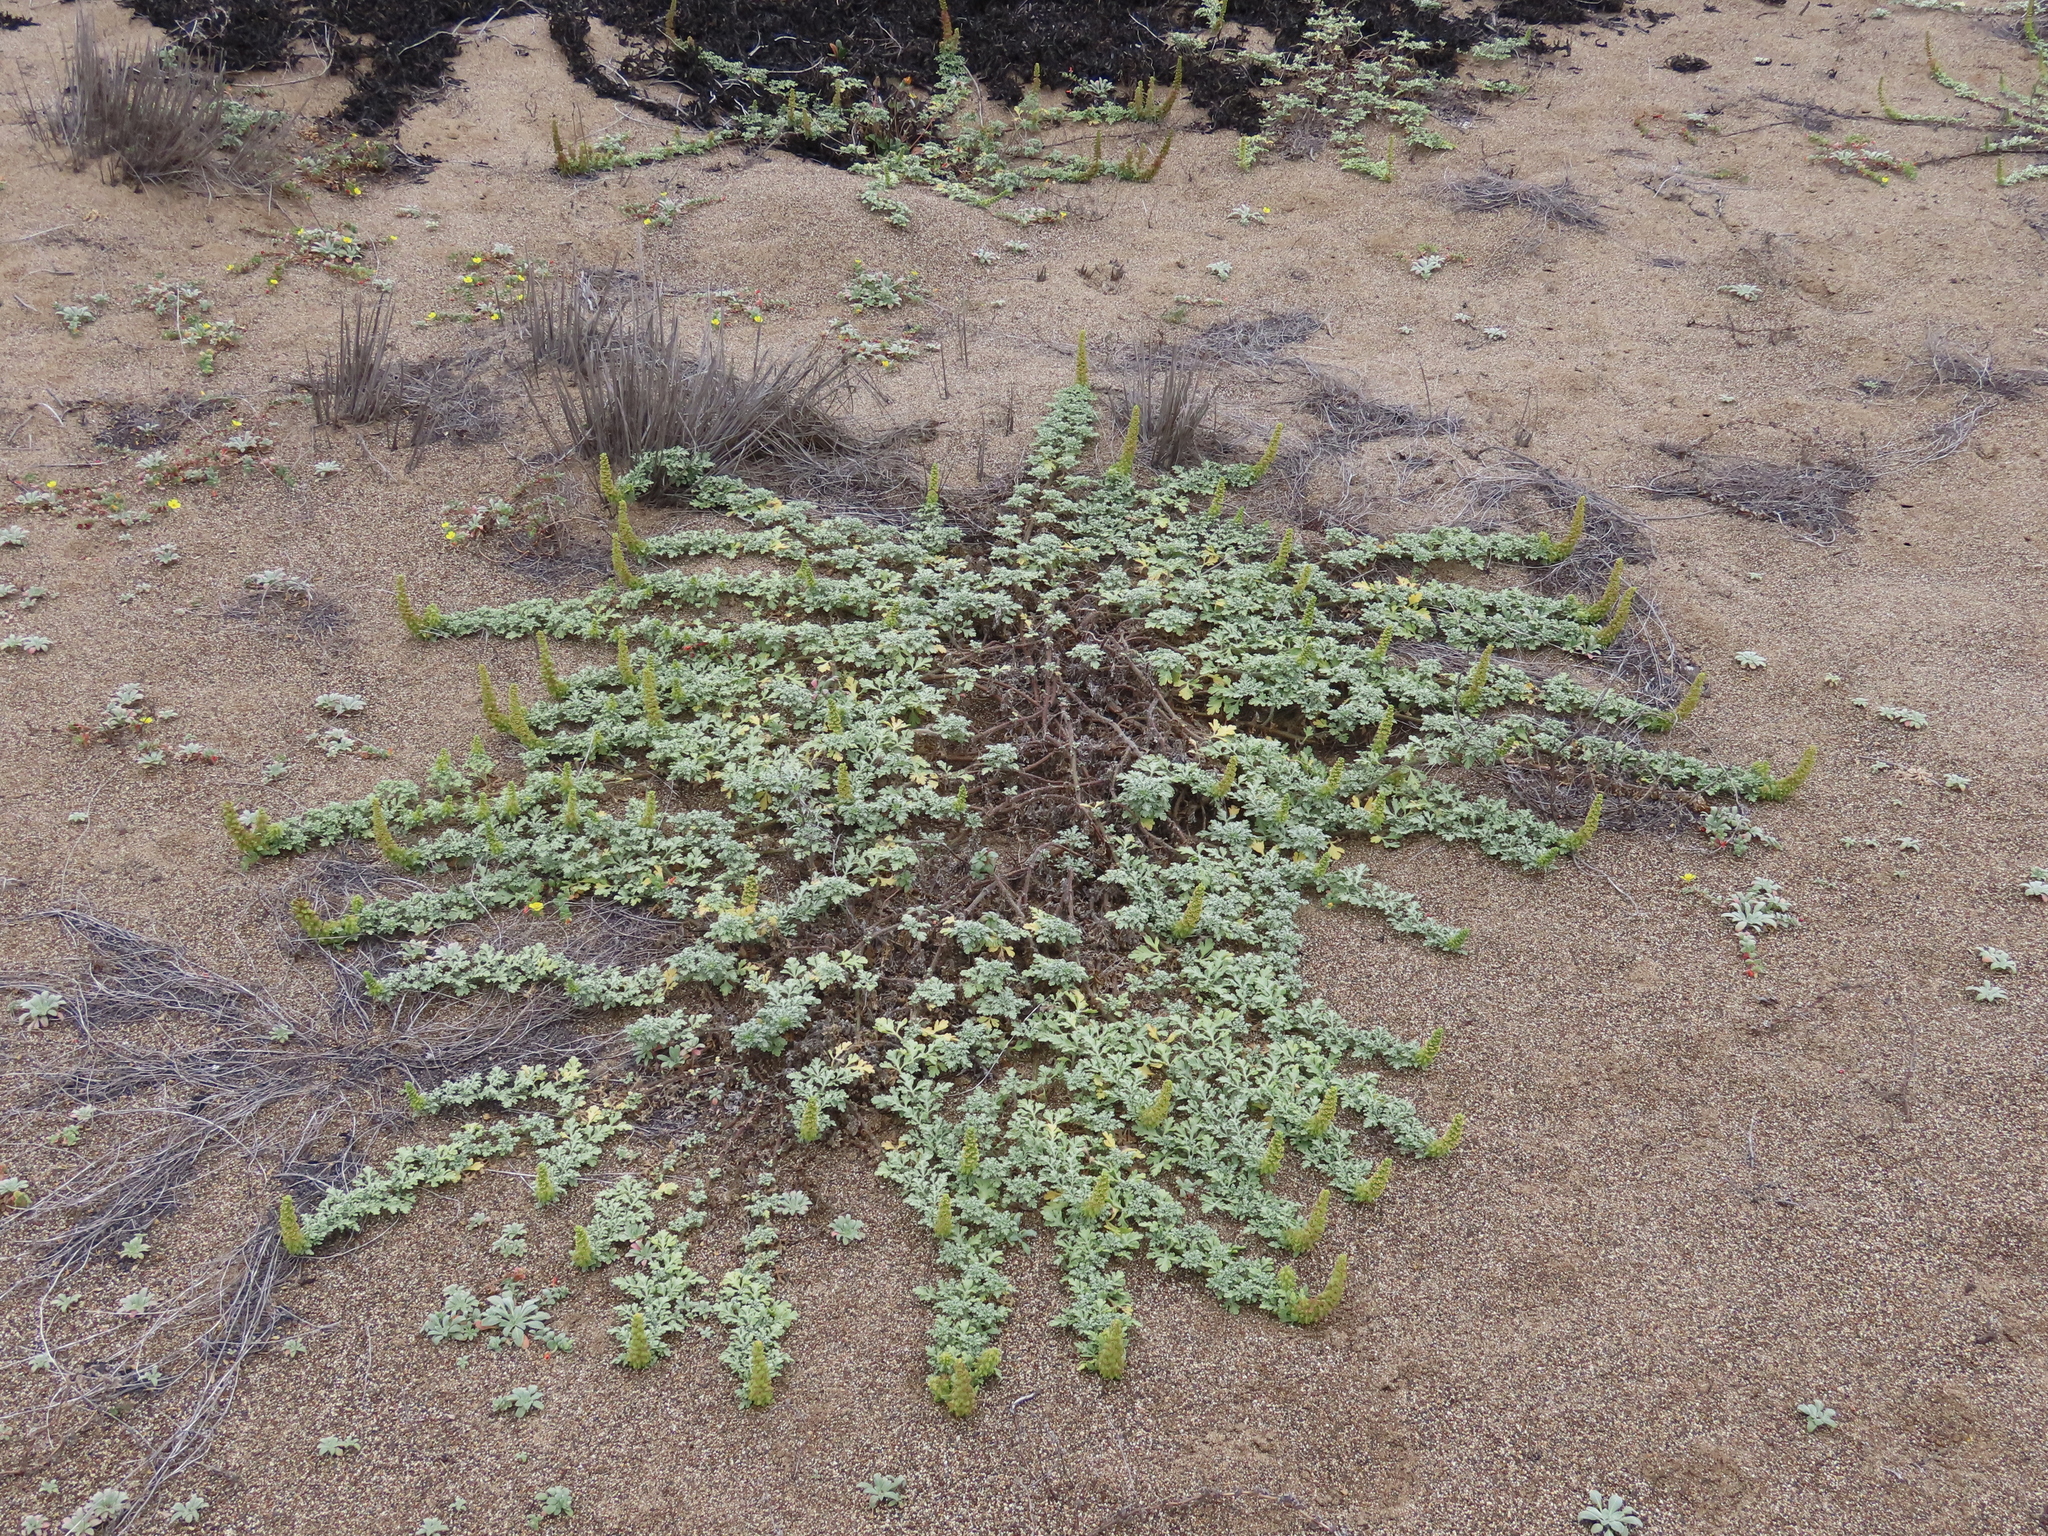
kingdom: Plantae
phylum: Tracheophyta
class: Magnoliopsida
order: Asterales
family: Asteraceae
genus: Ambrosia
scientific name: Ambrosia chamissonis
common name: Beachbur
